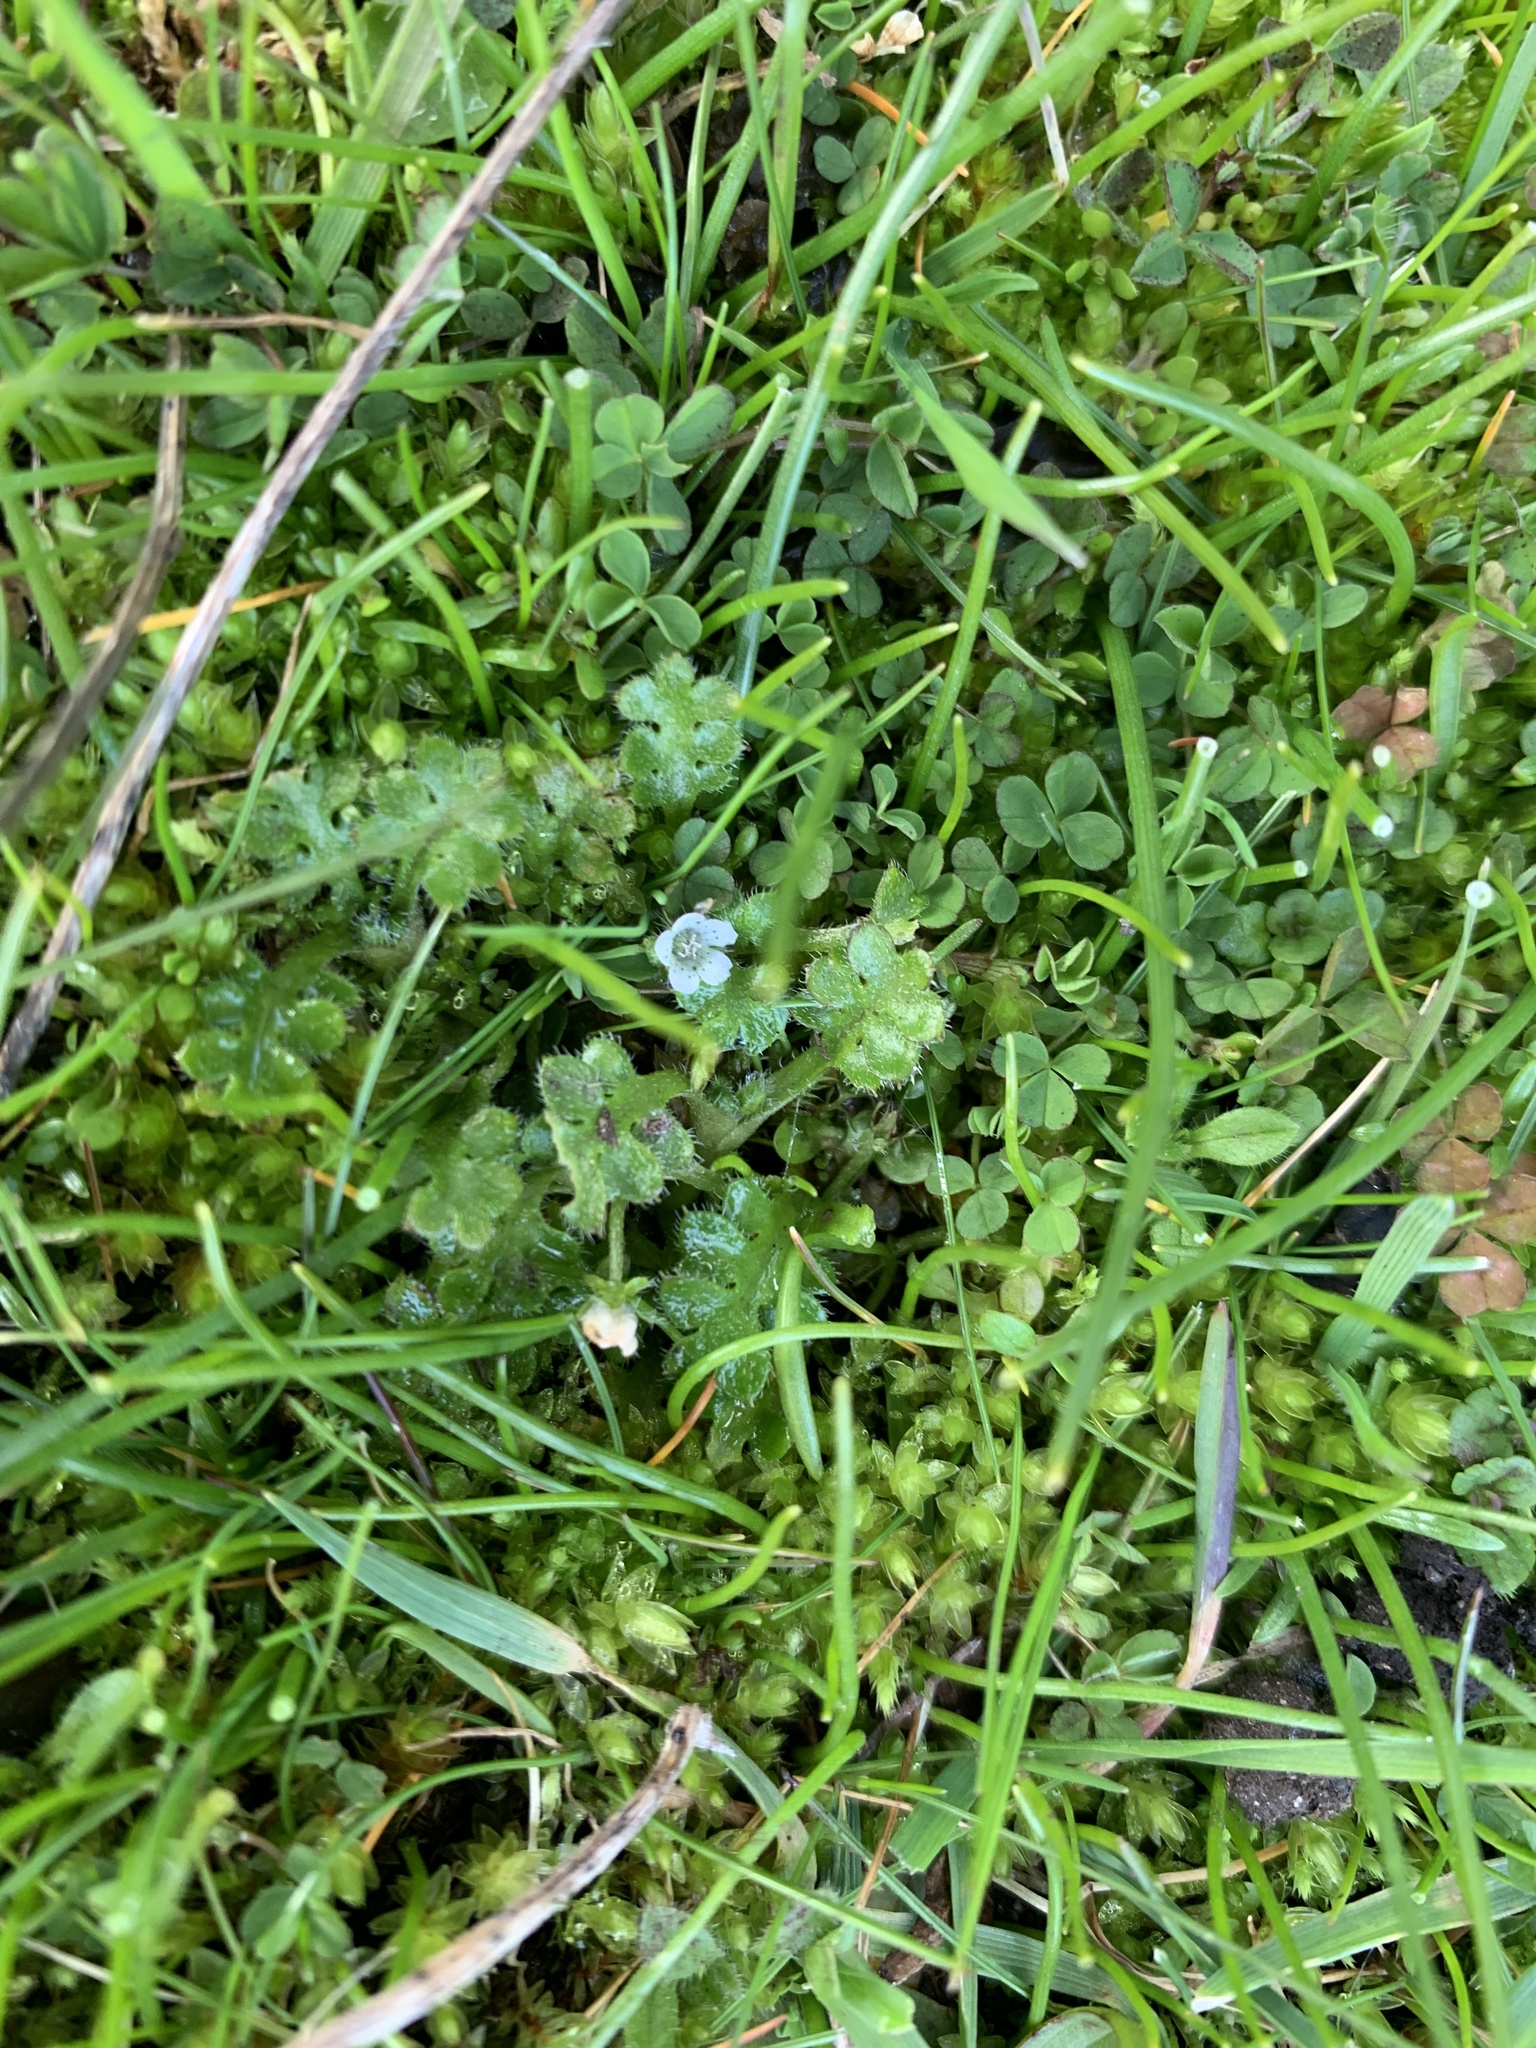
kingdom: Plantae
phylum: Tracheophyta
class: Magnoliopsida
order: Boraginales
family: Hydrophyllaceae
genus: Nemophila
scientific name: Nemophila pedunculata
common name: Little-foot baby-blue-eyes
